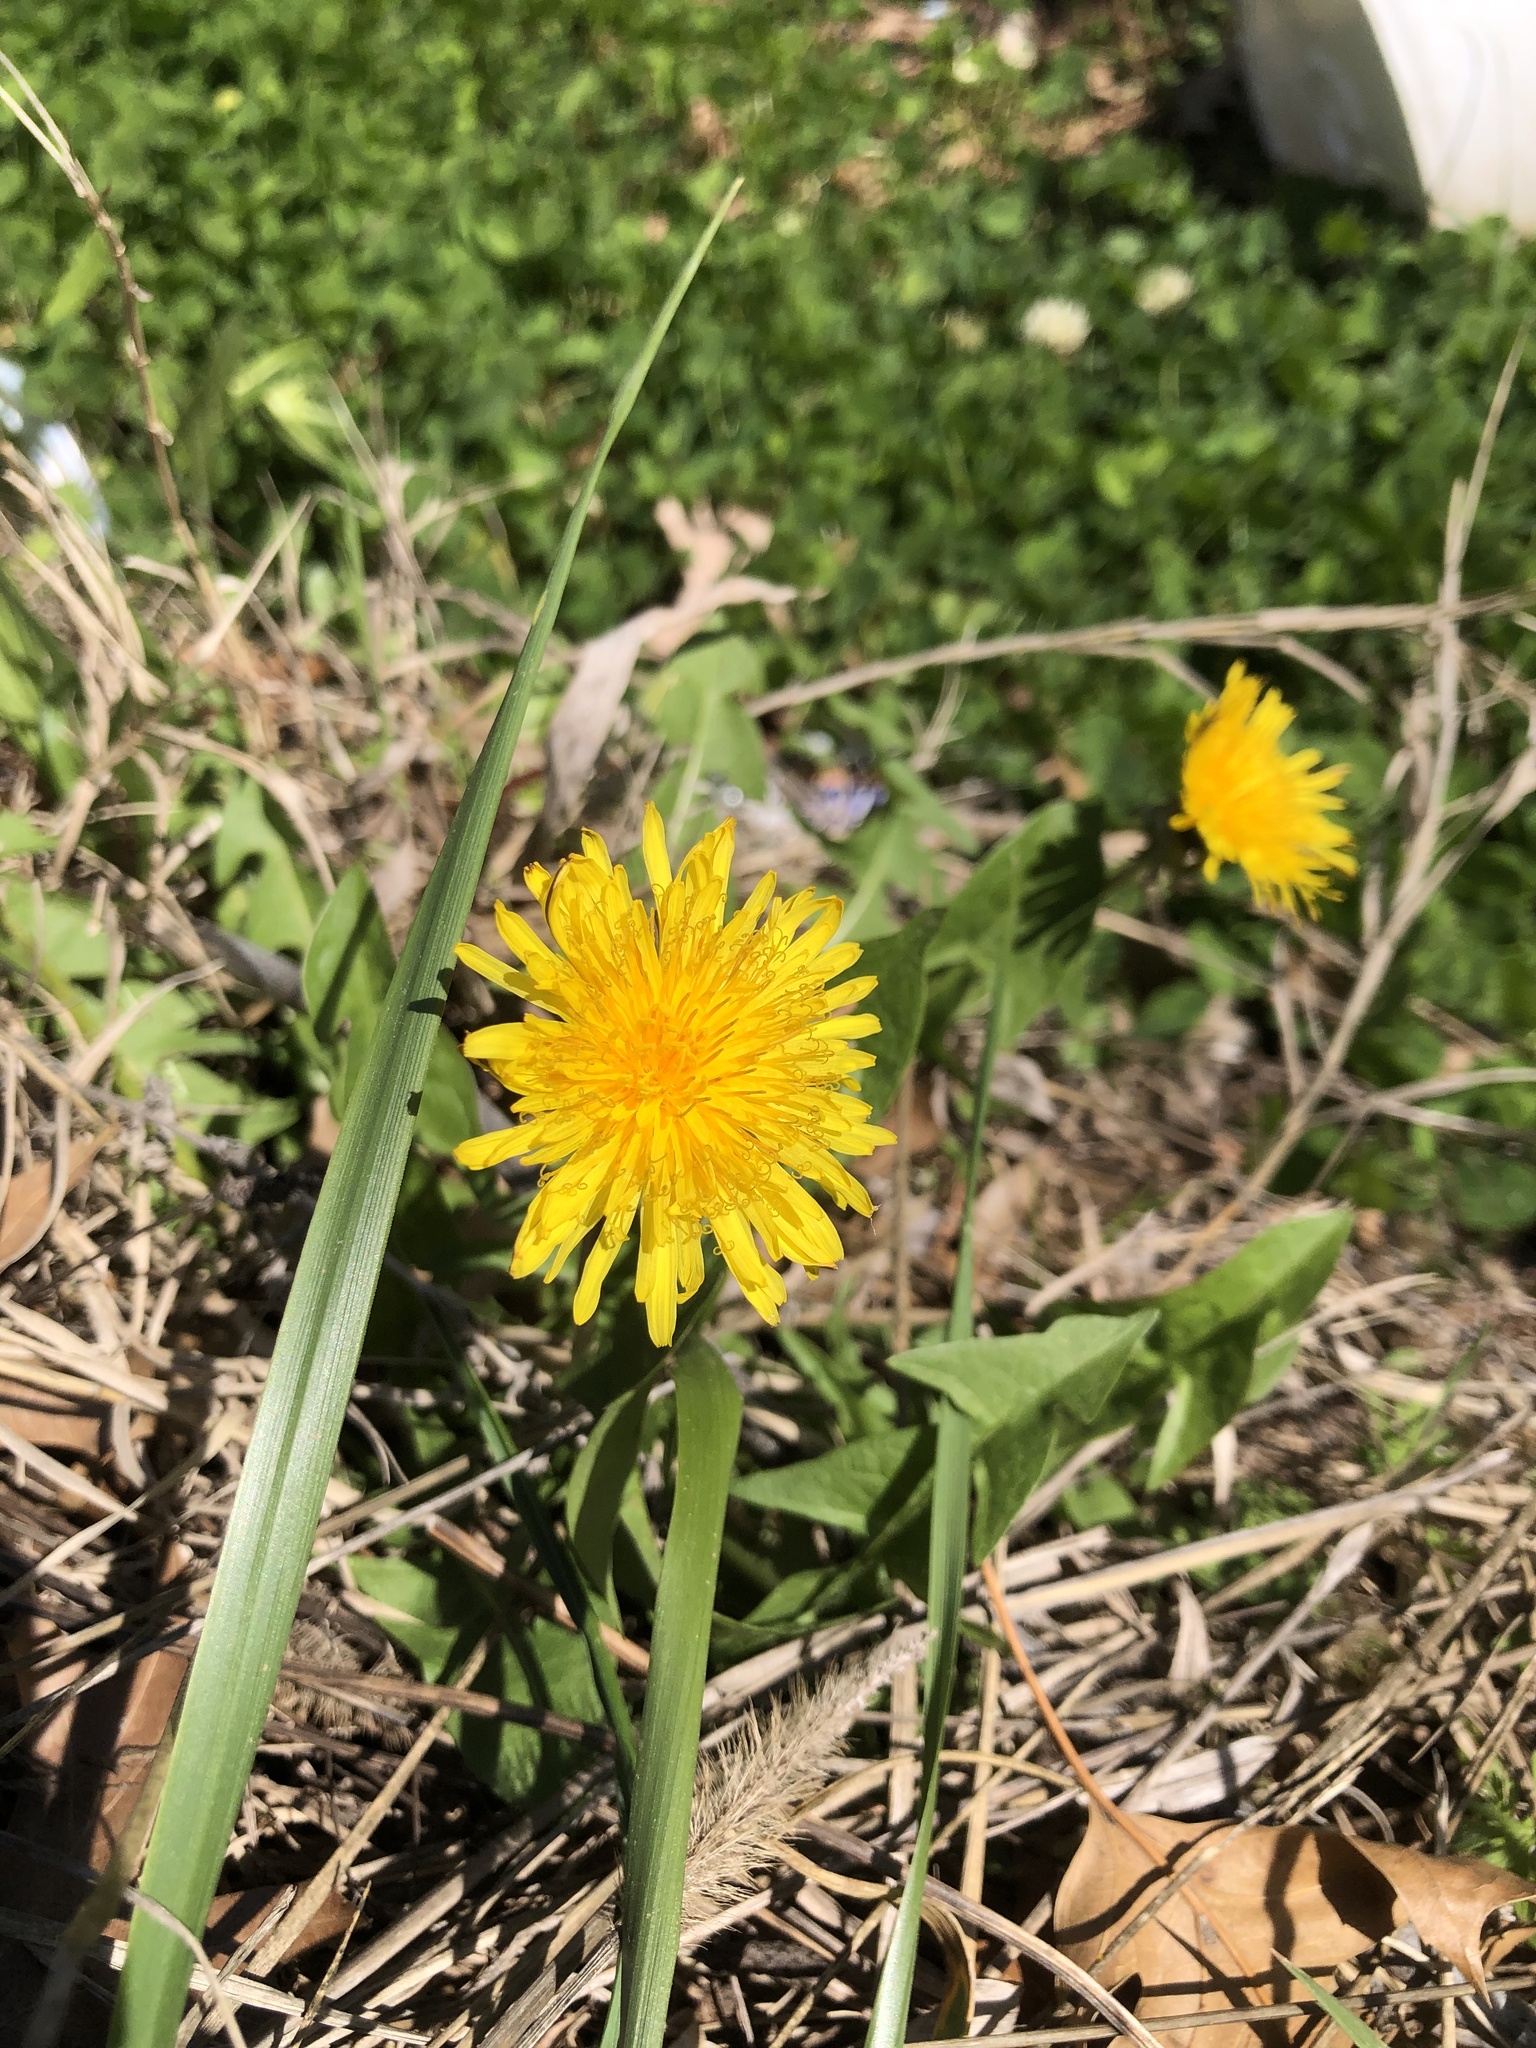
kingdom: Plantae
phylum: Tracheophyta
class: Magnoliopsida
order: Asterales
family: Asteraceae
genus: Taraxacum
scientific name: Taraxacum
